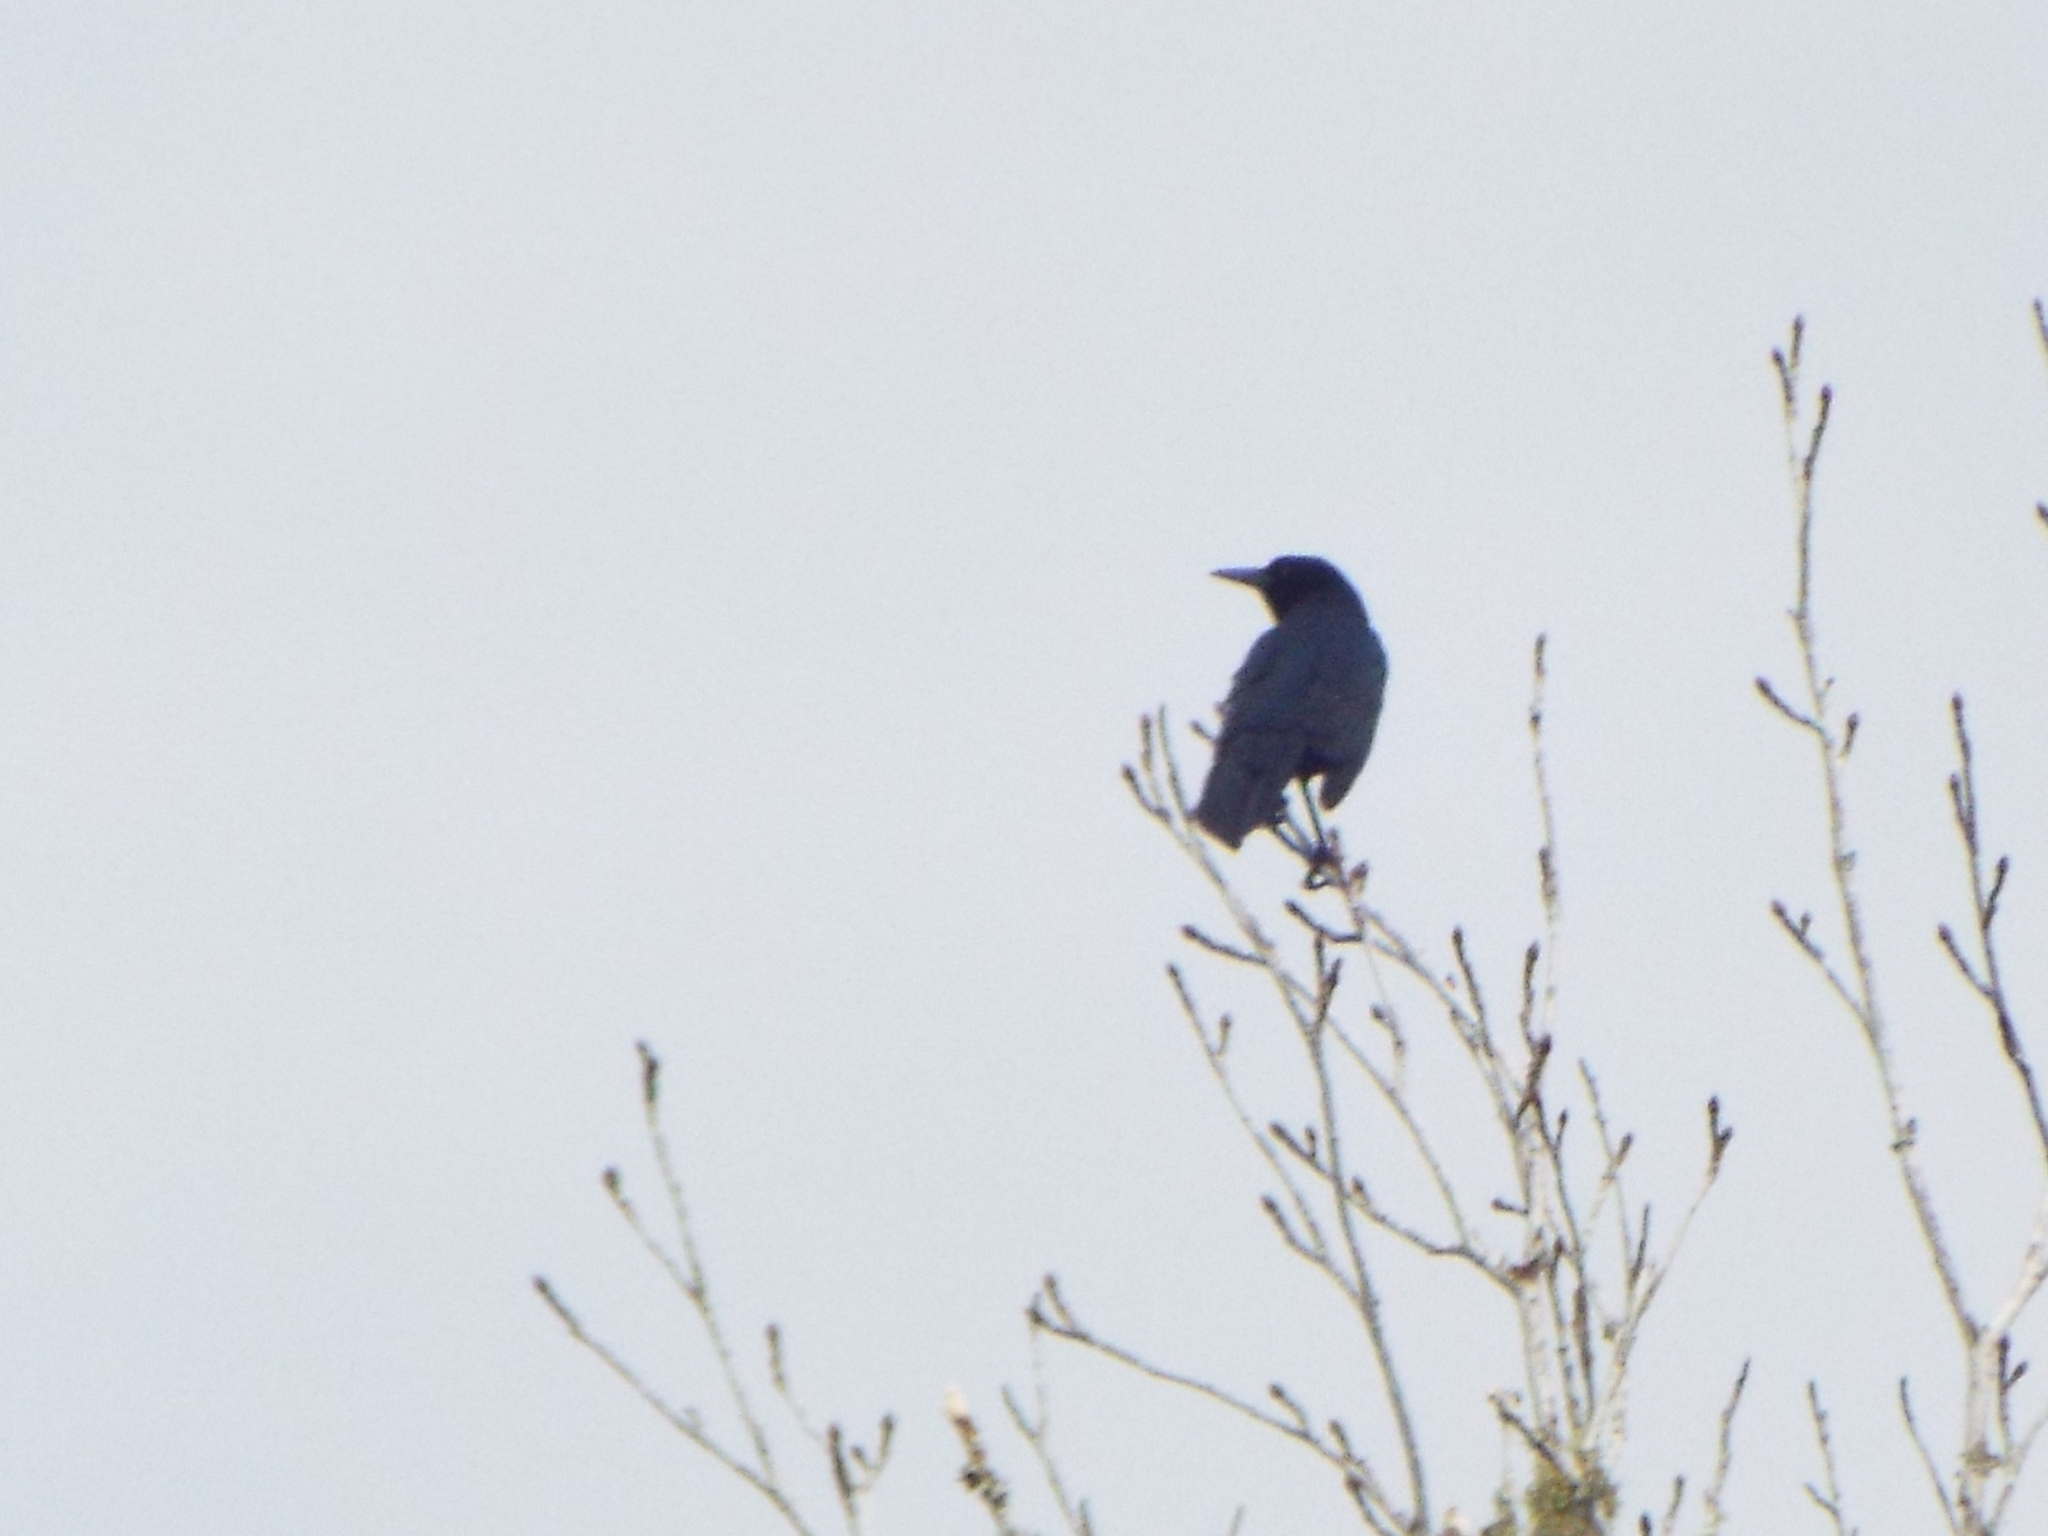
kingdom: Animalia
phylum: Chordata
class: Aves
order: Passeriformes
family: Icteridae
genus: Quiscalus
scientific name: Quiscalus major
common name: Boat-tailed grackle
